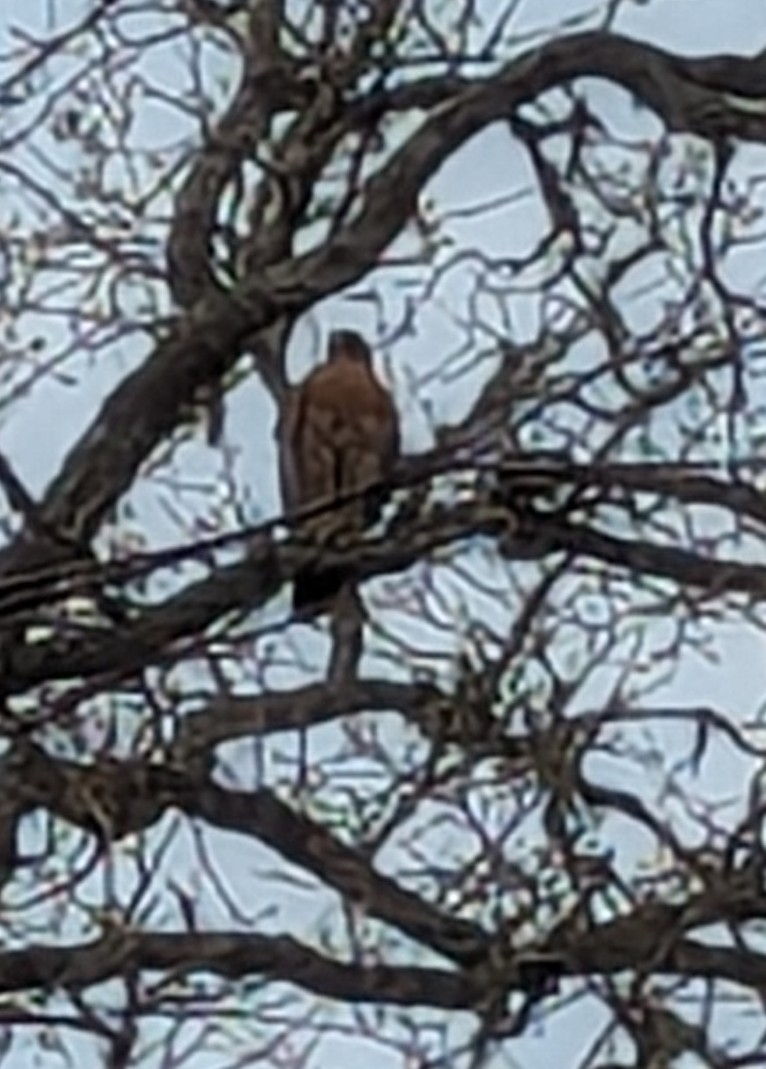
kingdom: Animalia
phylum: Chordata
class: Aves
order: Accipitriformes
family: Accipitridae
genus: Buteo
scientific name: Buteo lineatus
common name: Red-shouldered hawk
